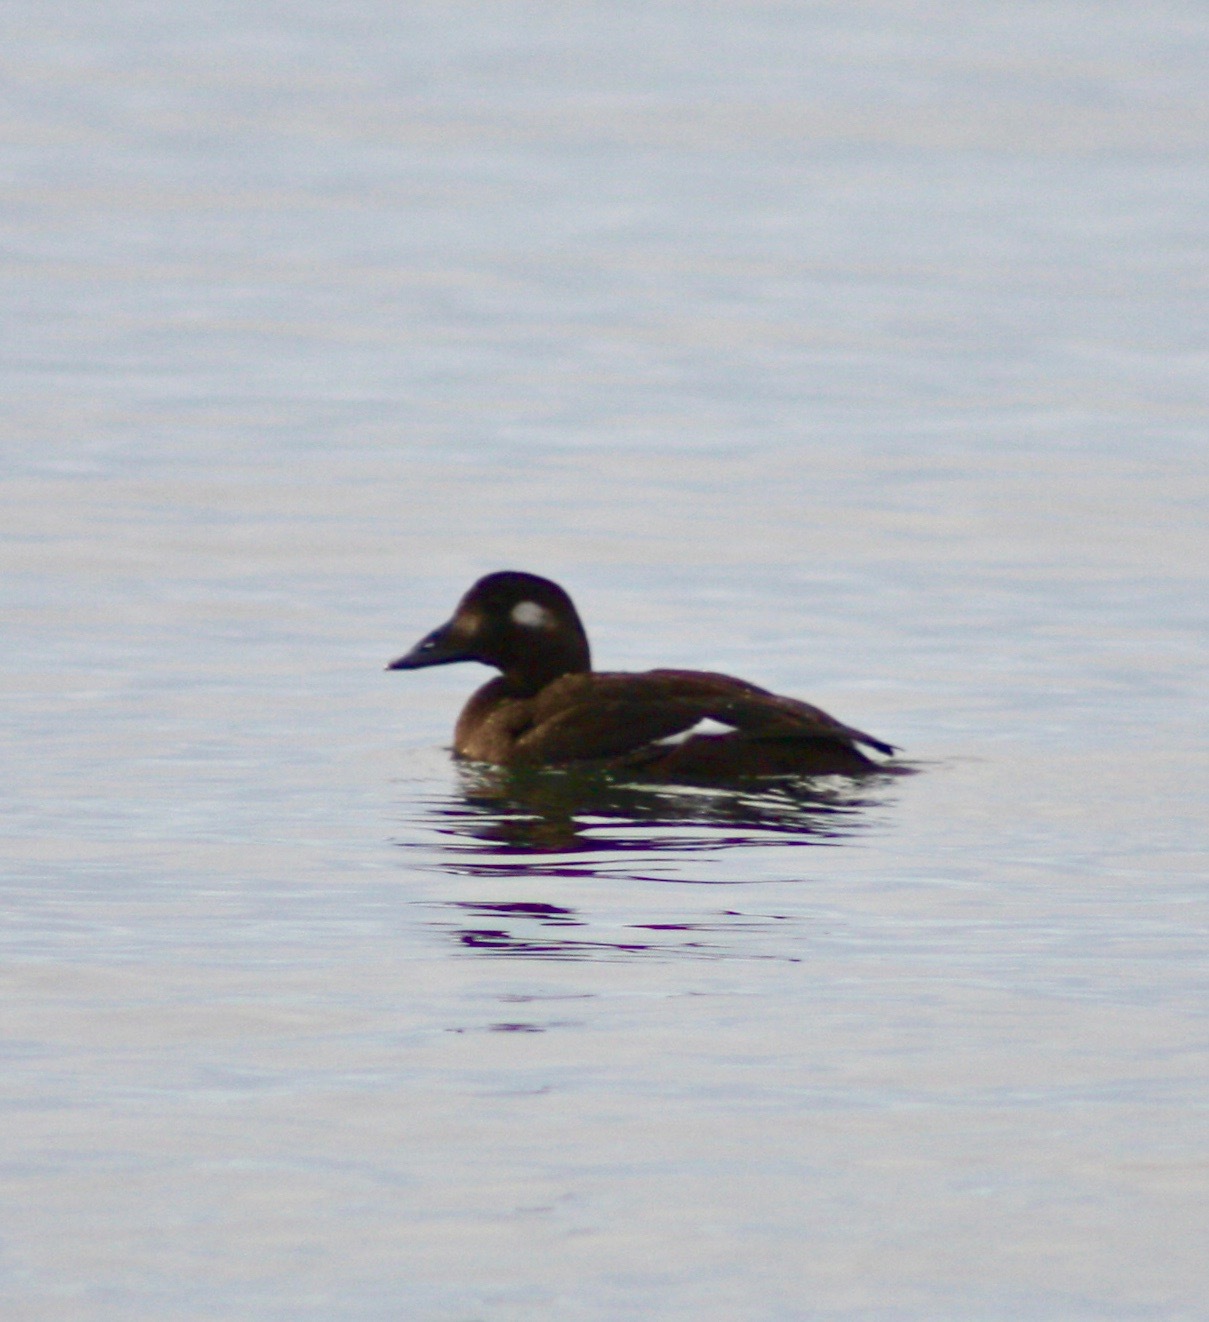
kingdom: Animalia
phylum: Chordata
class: Aves
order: Anseriformes
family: Anatidae
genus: Melanitta
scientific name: Melanitta deglandi
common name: White-winged scoter
